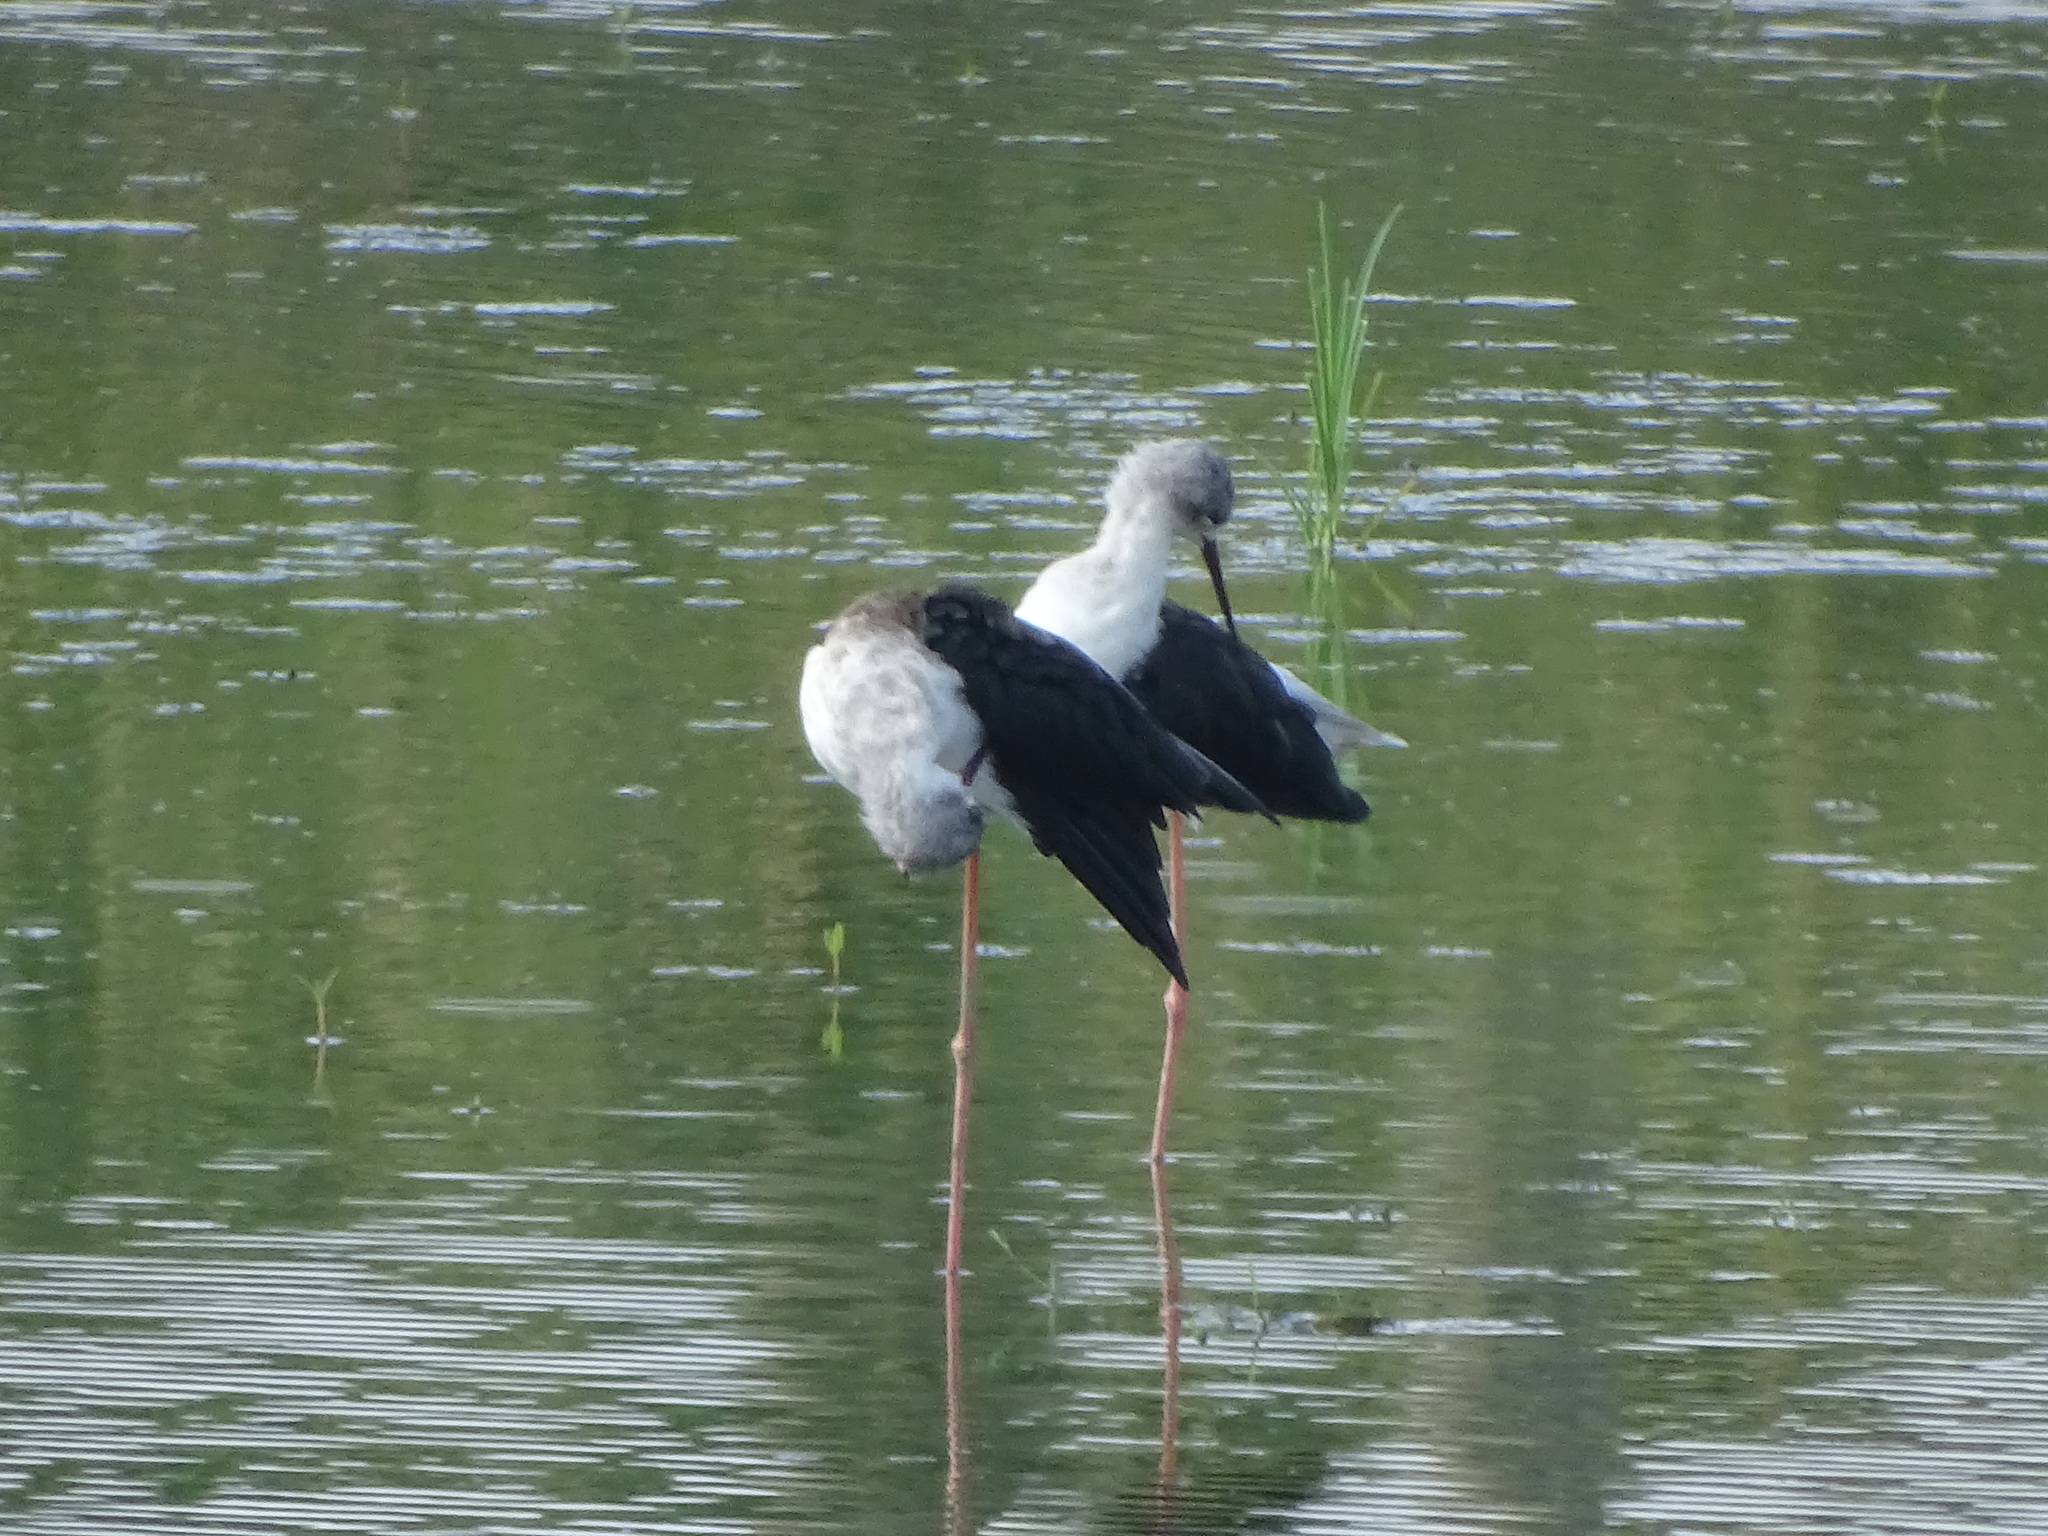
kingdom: Animalia
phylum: Chordata
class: Aves
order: Charadriiformes
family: Recurvirostridae
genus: Himantopus
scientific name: Himantopus himantopus
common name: Black-winged stilt
